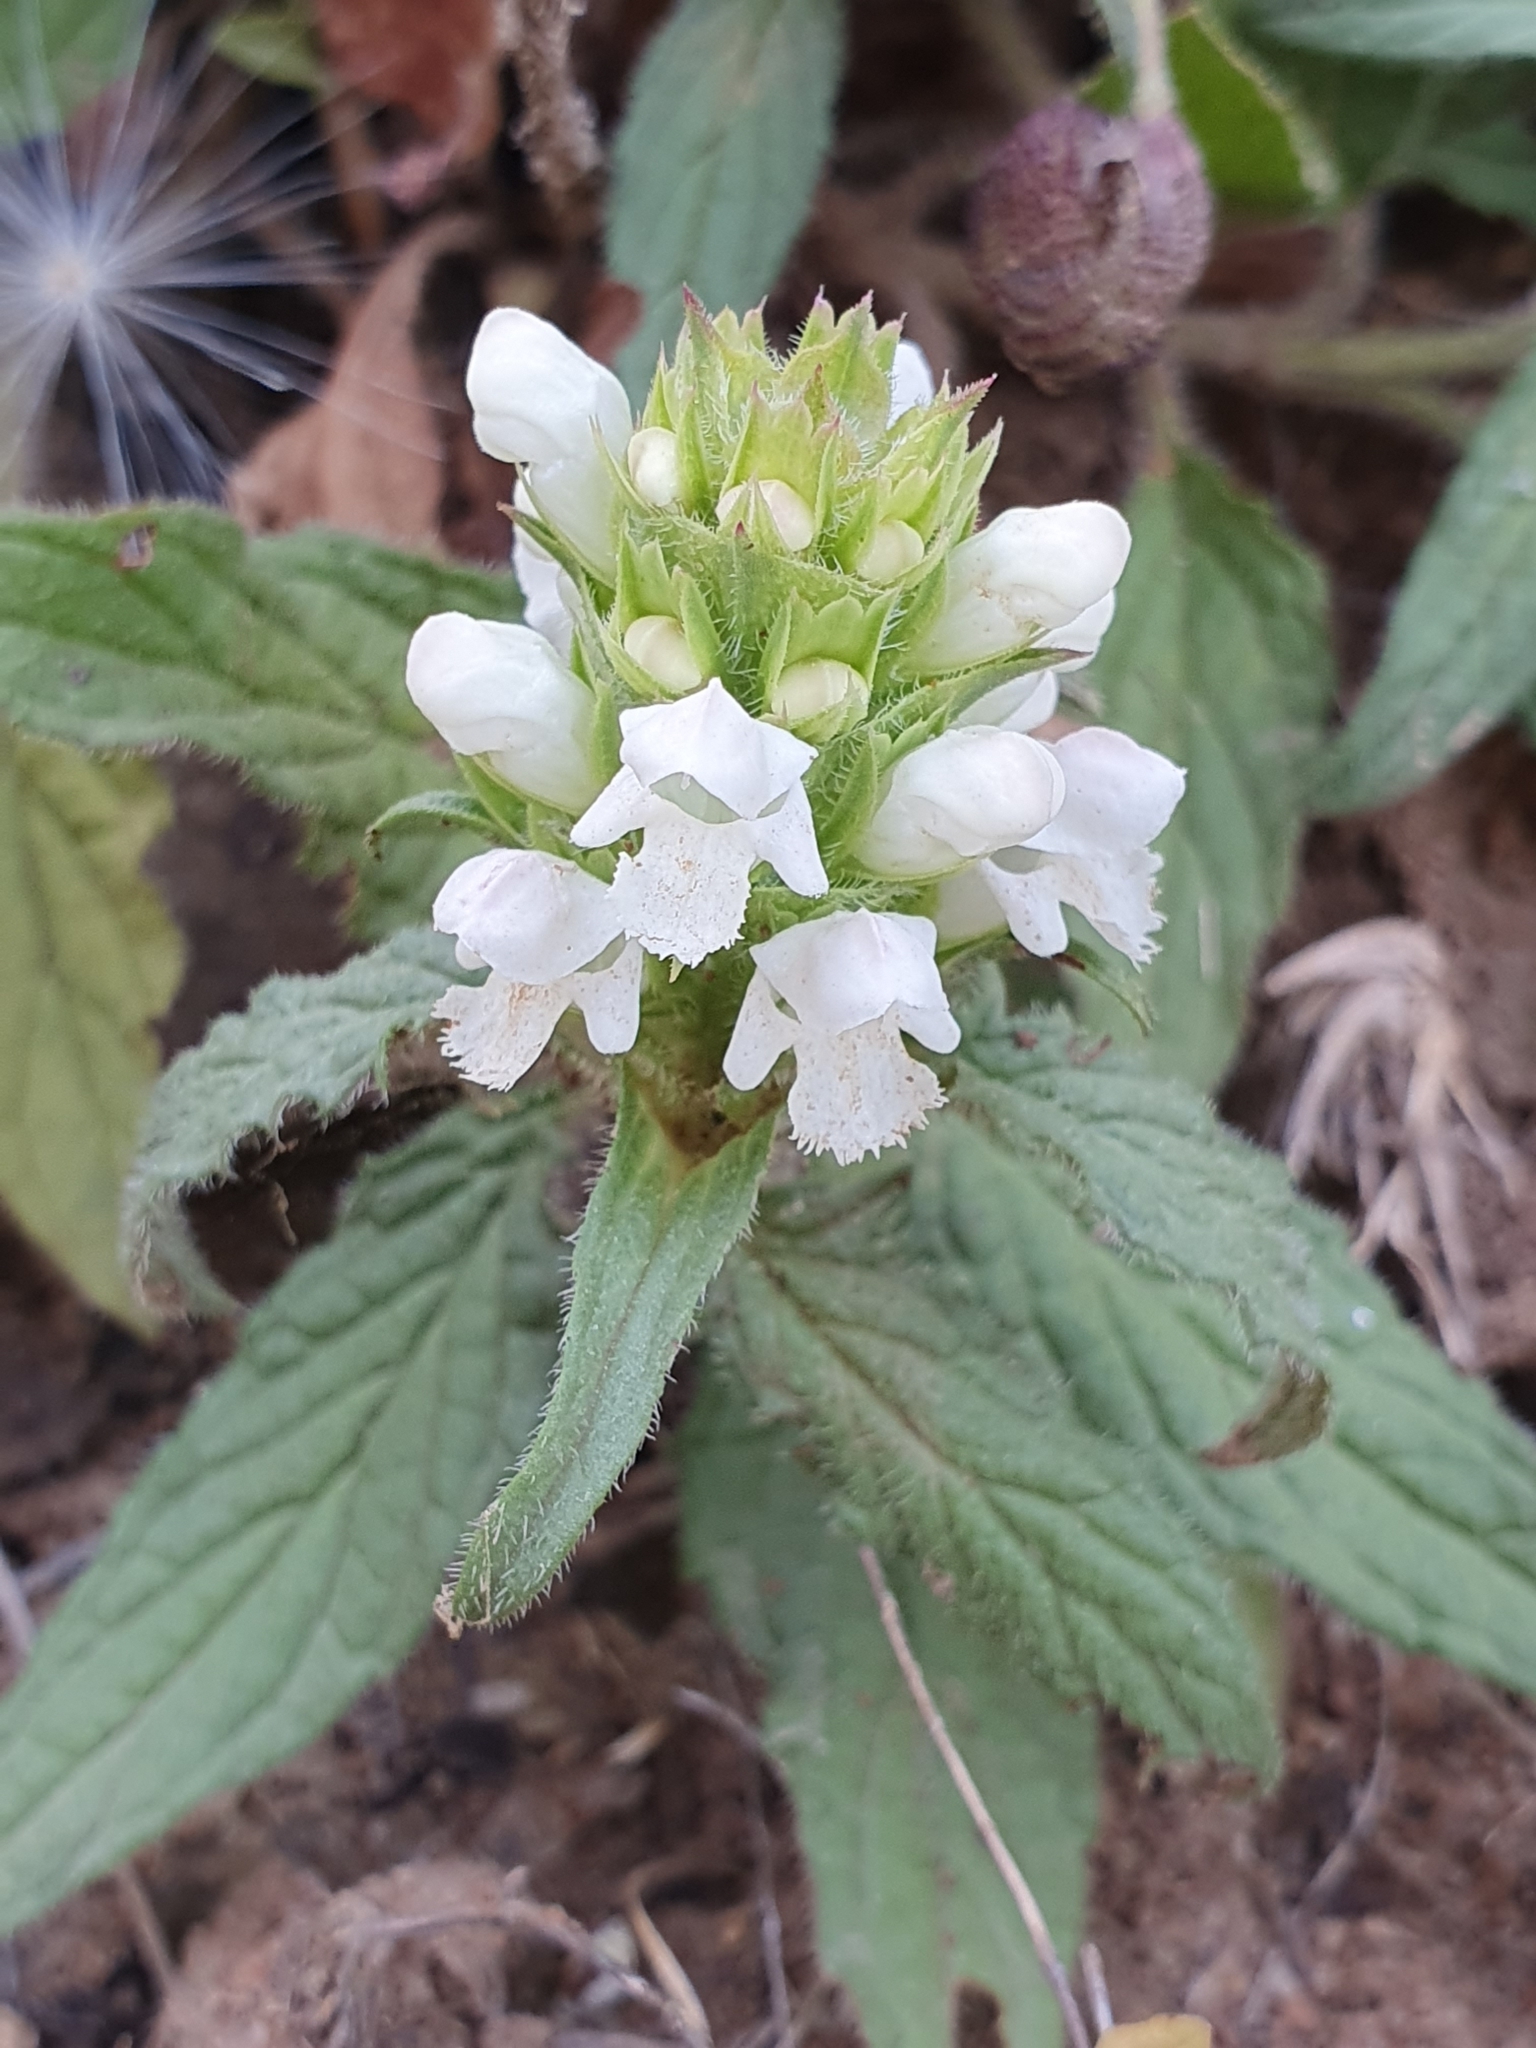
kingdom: Plantae
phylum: Tracheophyta
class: Magnoliopsida
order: Lamiales
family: Lamiaceae
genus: Prunella
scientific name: Prunella laciniata
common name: Cut-leaved selfheal
